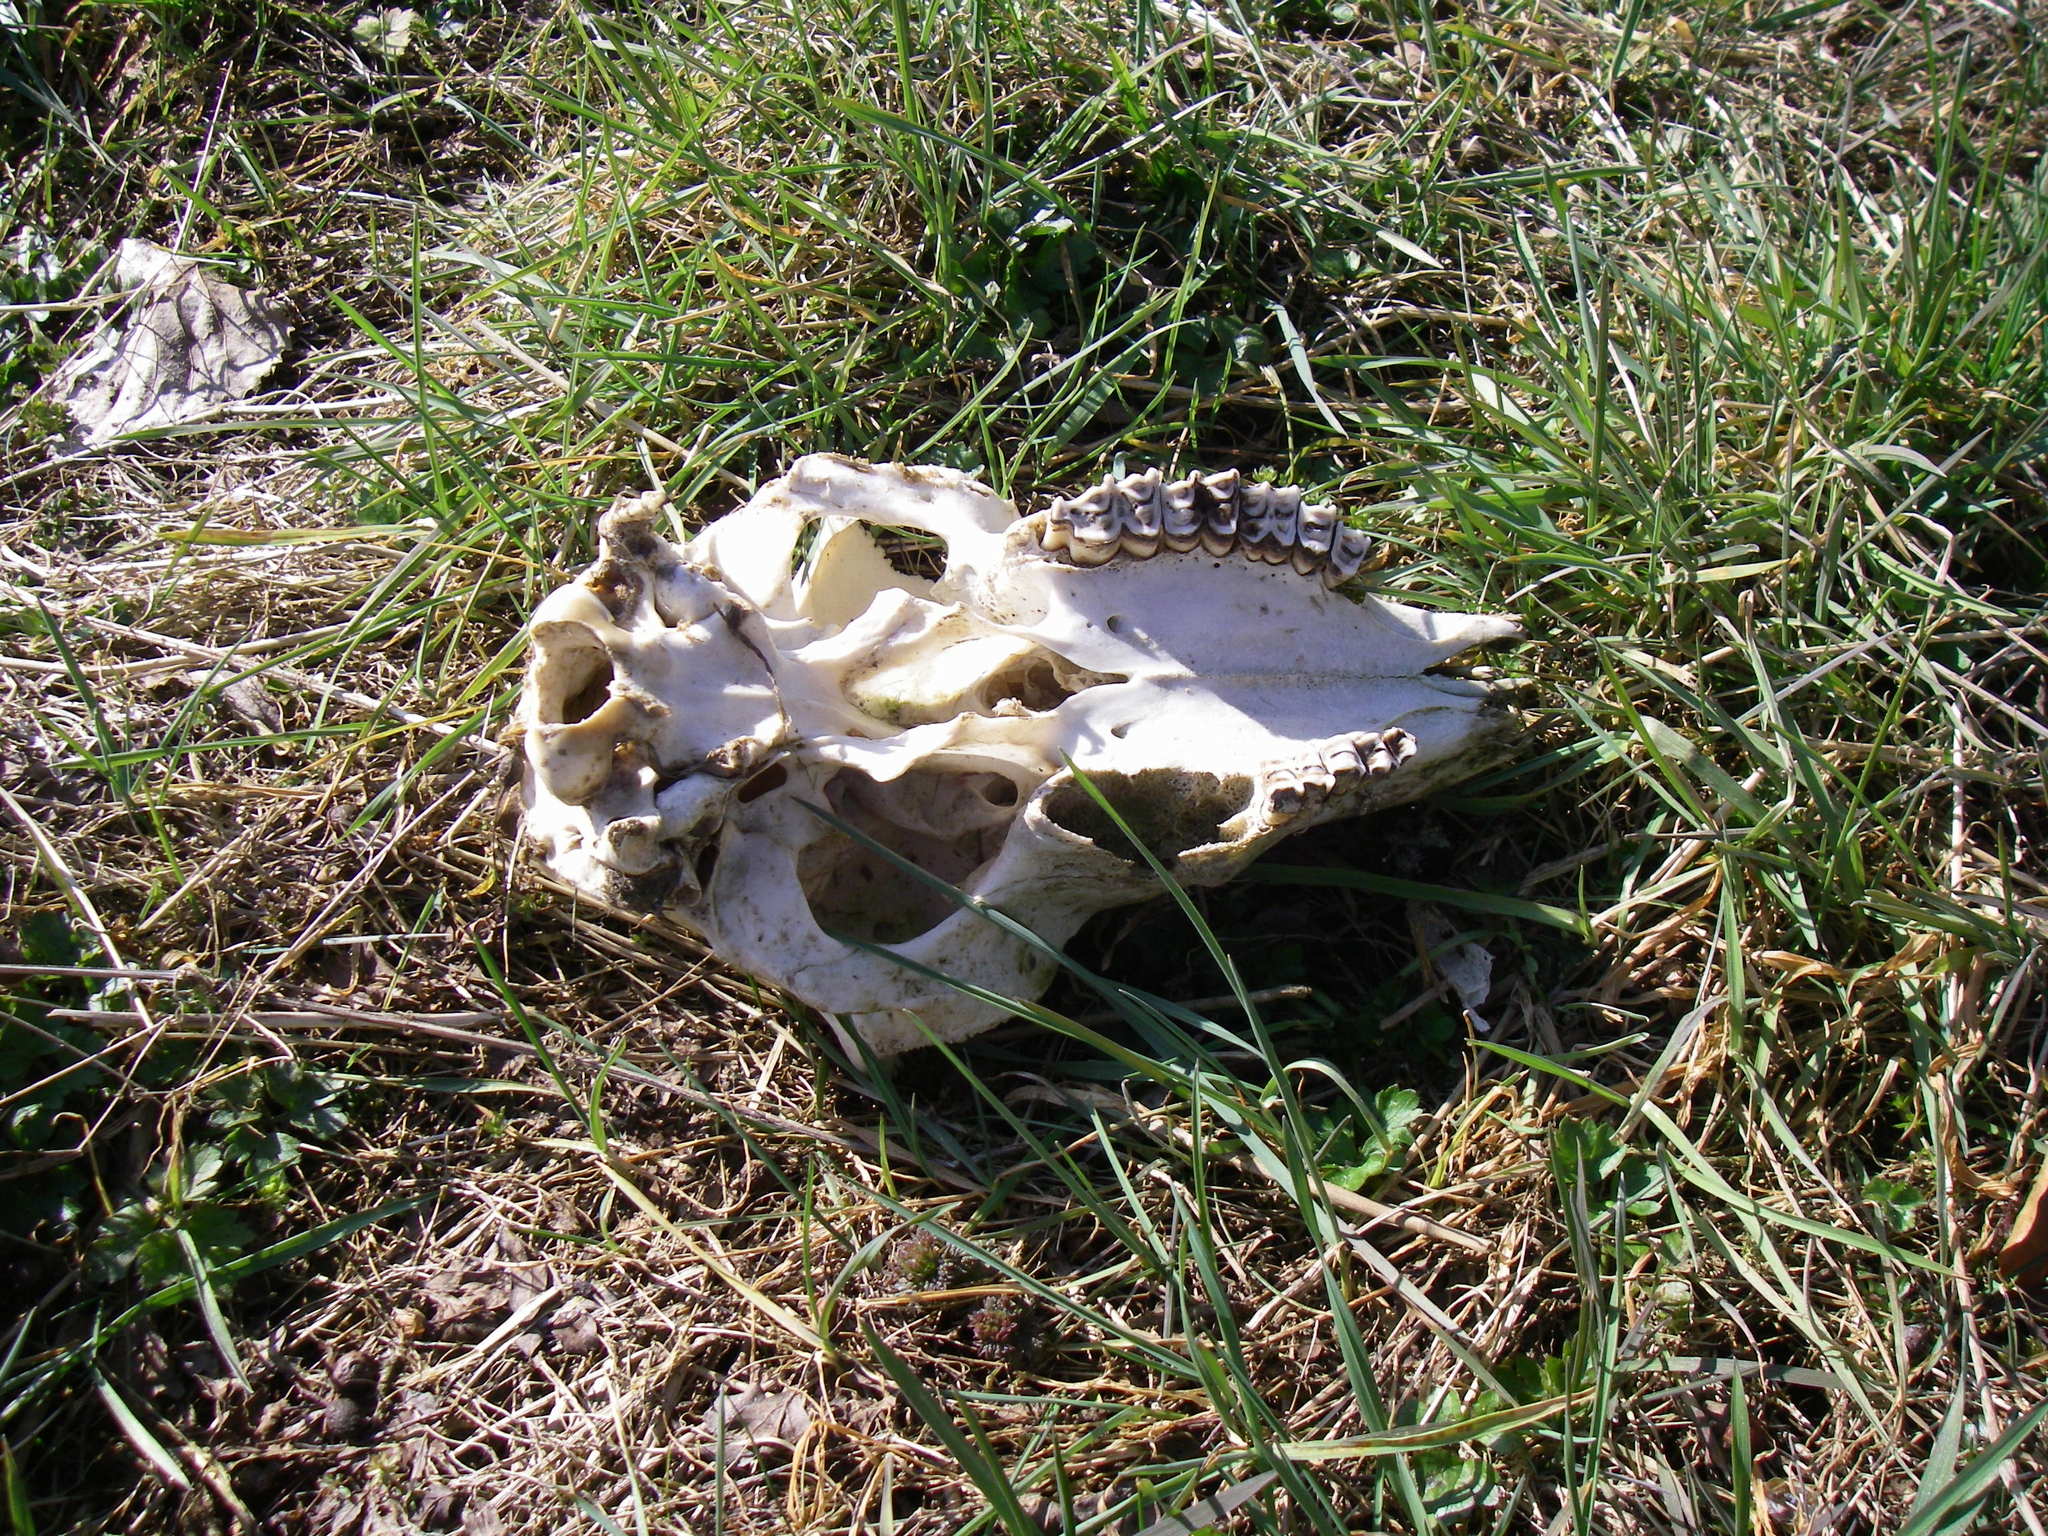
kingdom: Animalia
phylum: Chordata
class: Mammalia
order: Artiodactyla
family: Bovidae
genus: Ovis
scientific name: Ovis aries
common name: Domestic sheep
